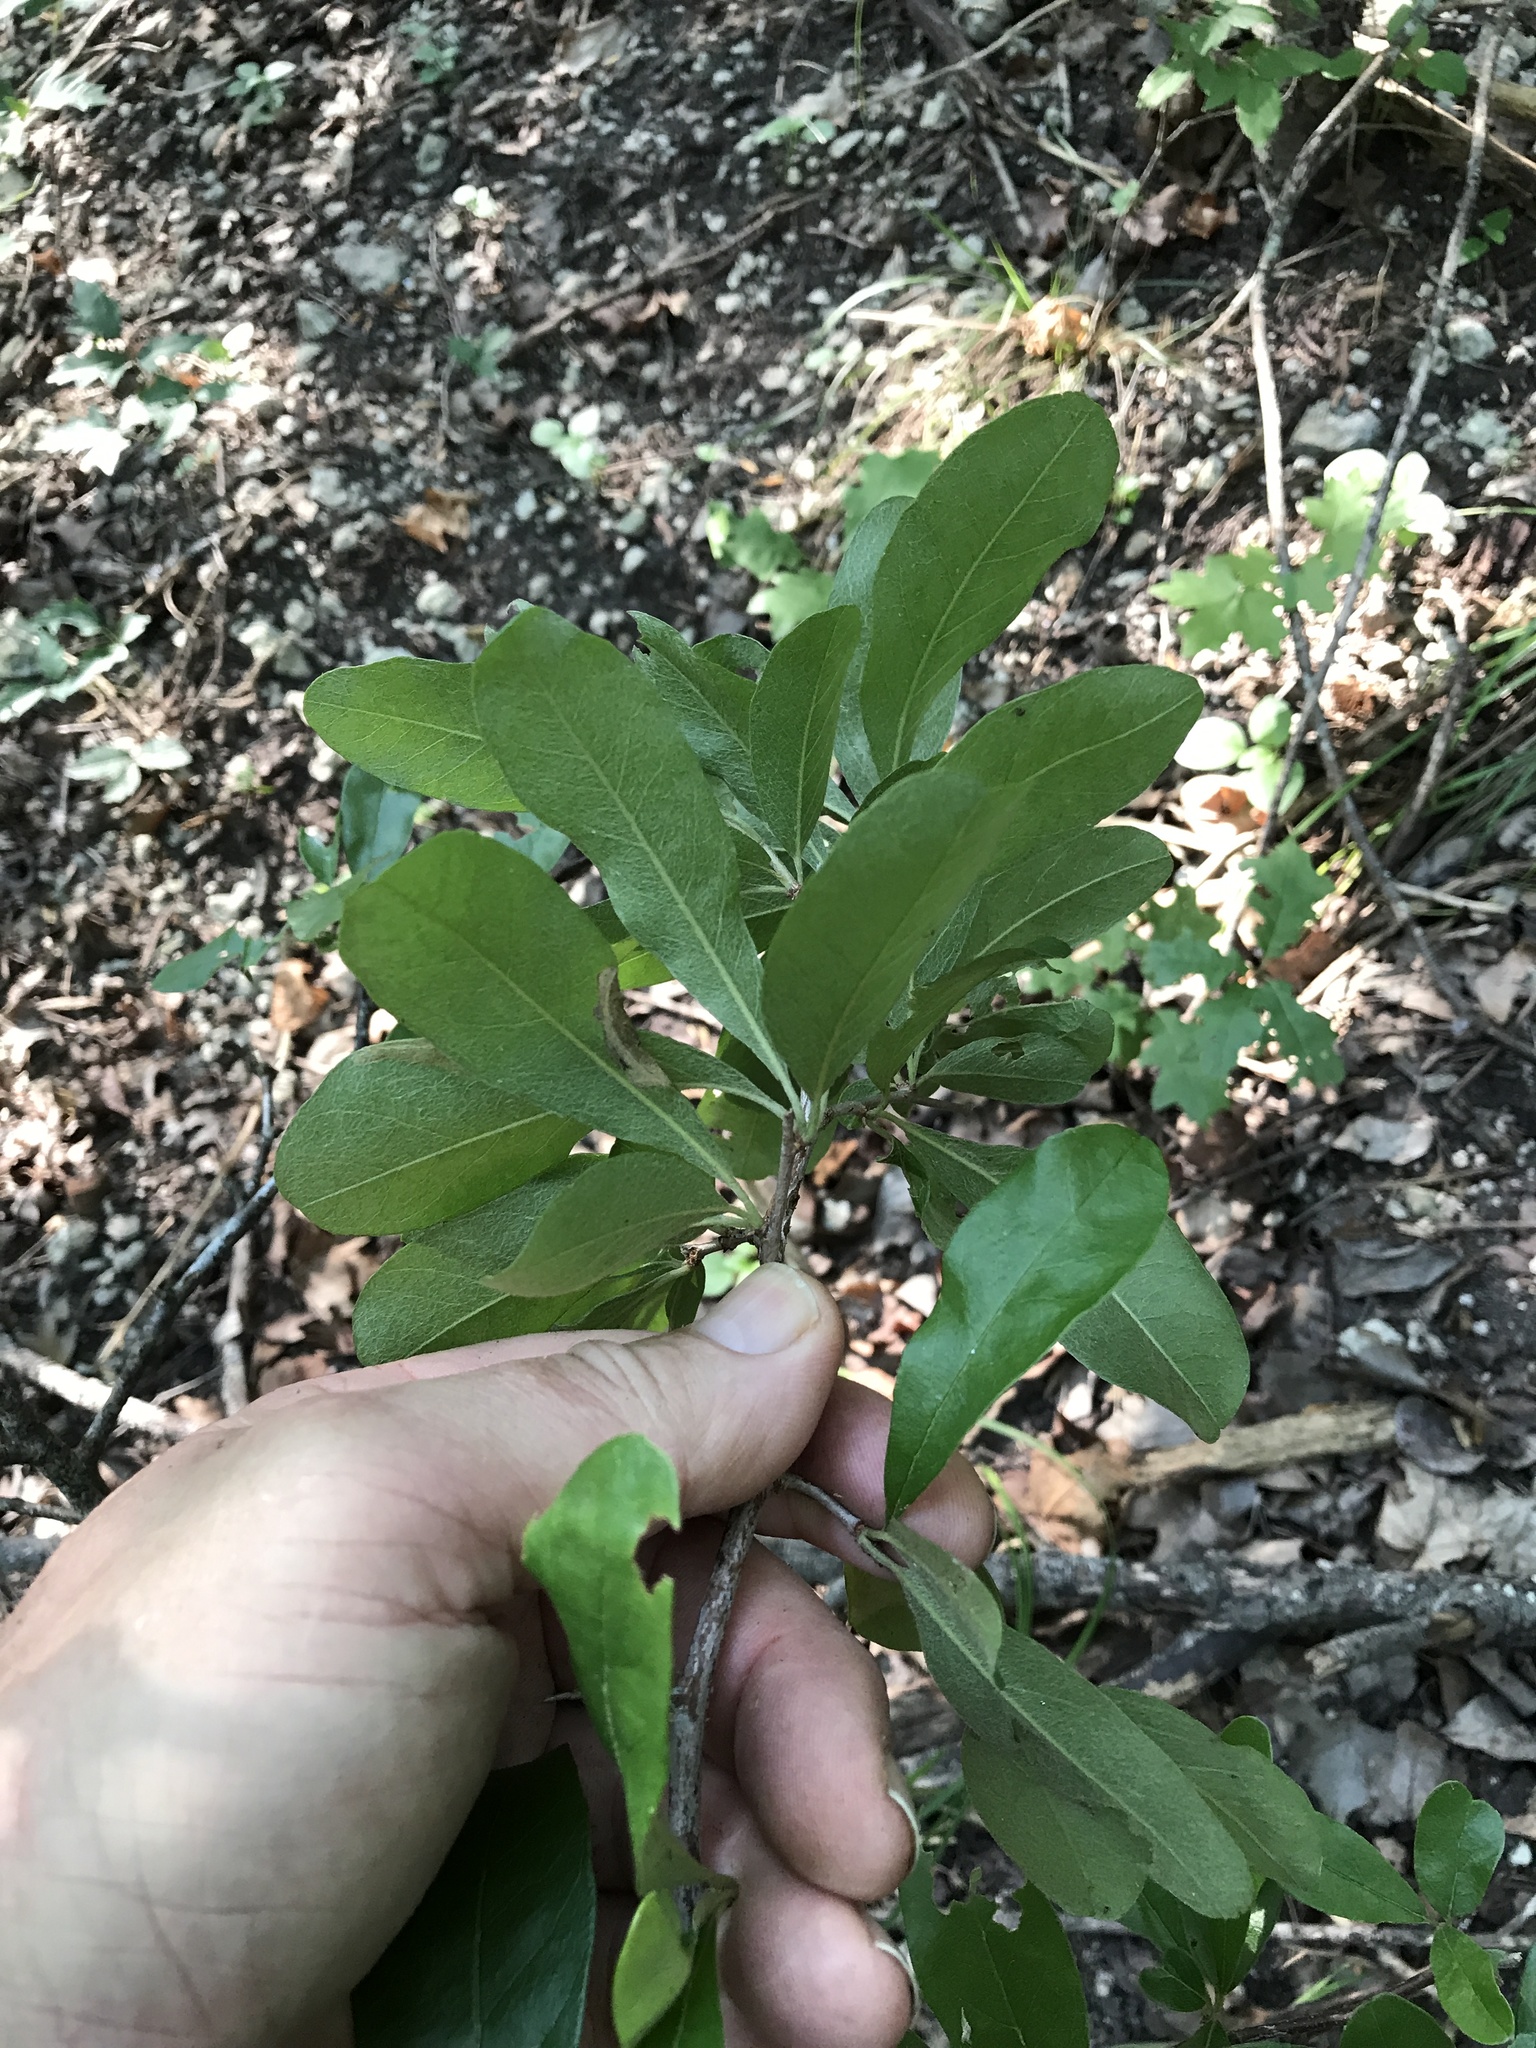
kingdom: Plantae
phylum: Tracheophyta
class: Magnoliopsida
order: Ericales
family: Sapotaceae
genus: Sideroxylon
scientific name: Sideroxylon lanuginosum
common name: Chittamwood
